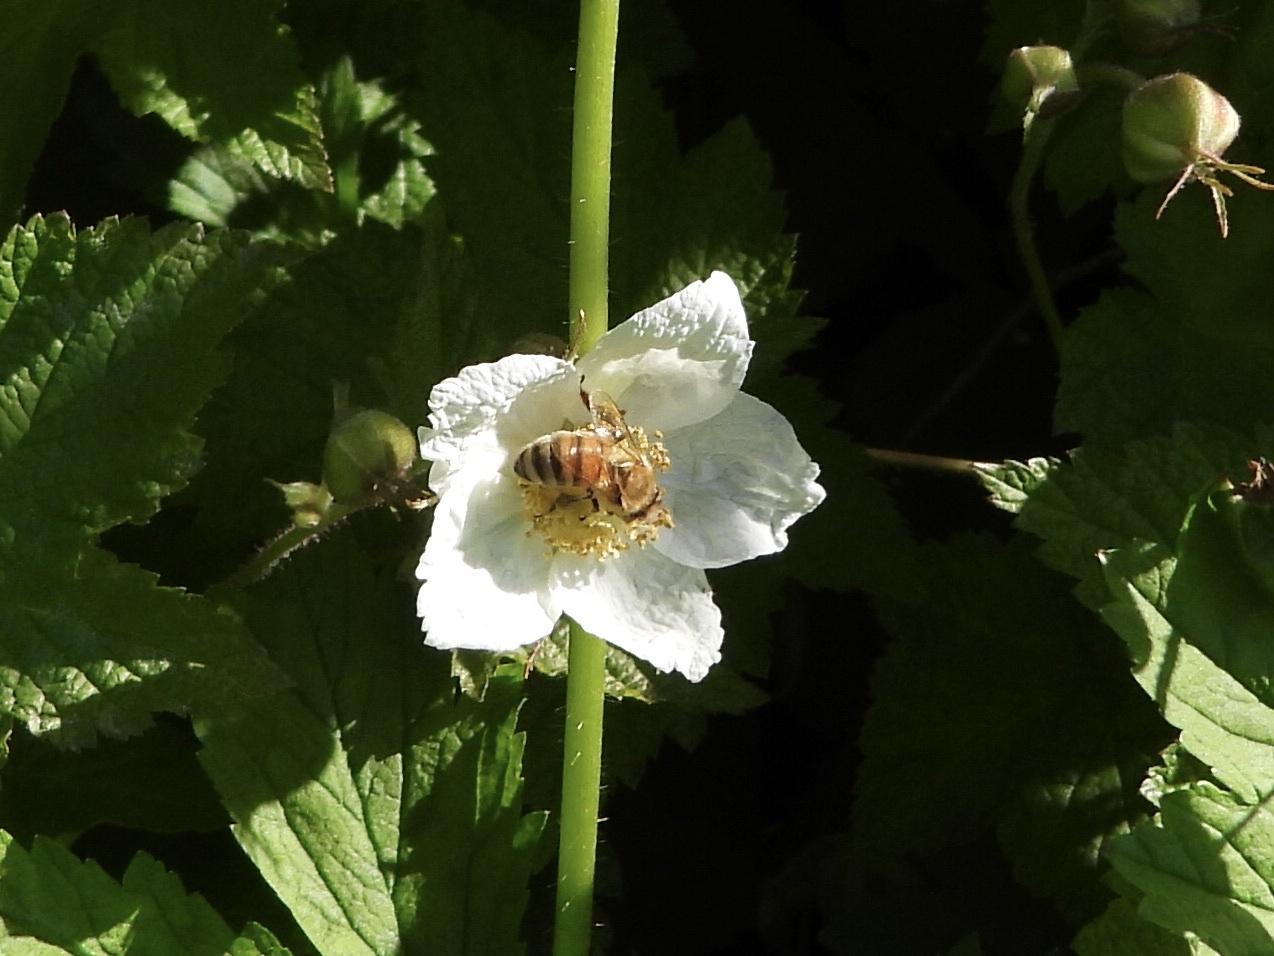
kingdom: Animalia
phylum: Arthropoda
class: Insecta
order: Hymenoptera
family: Apidae
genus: Apis
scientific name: Apis mellifera
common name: Honey bee
